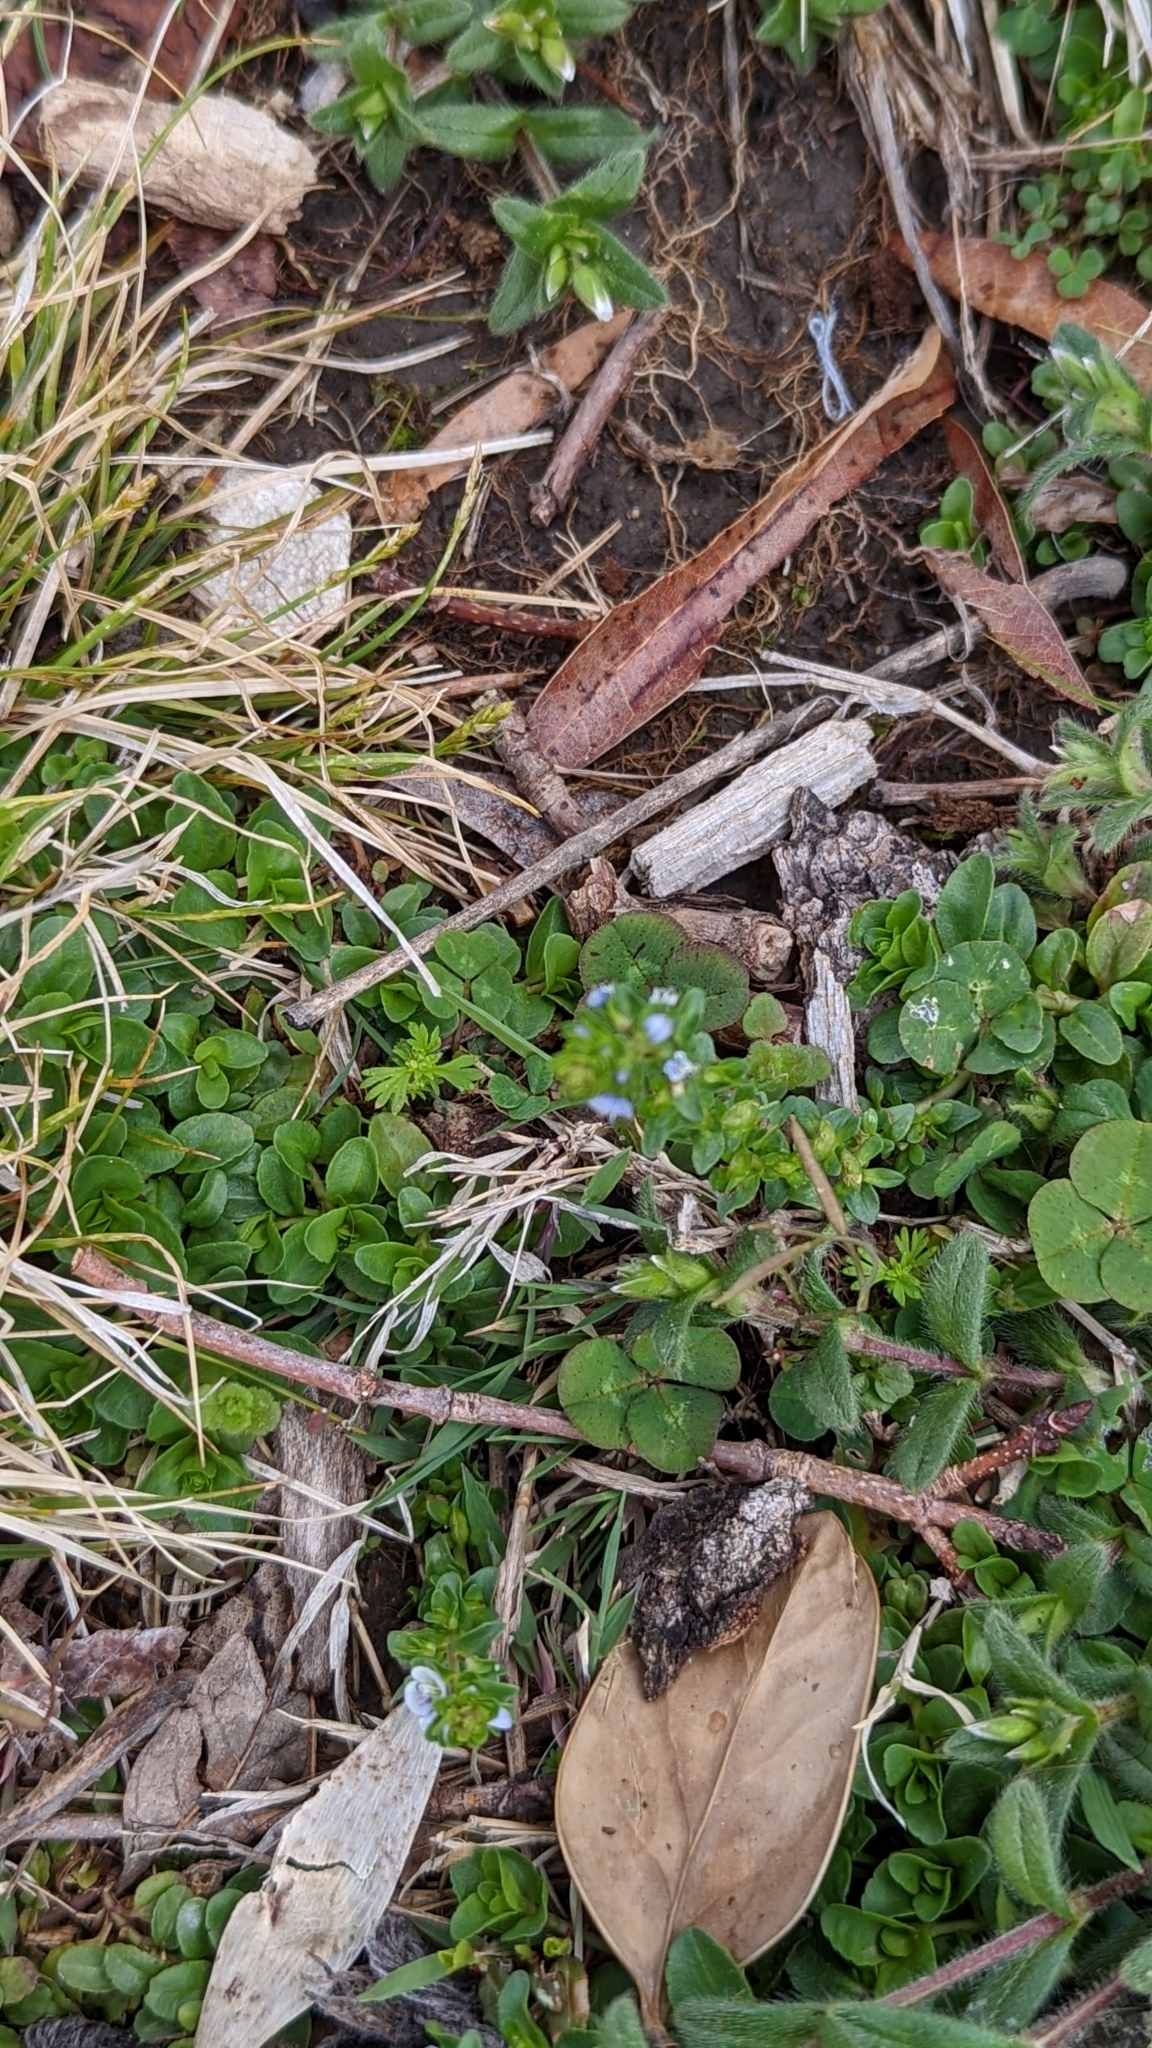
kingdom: Plantae
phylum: Tracheophyta
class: Magnoliopsida
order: Lamiales
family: Plantaginaceae
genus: Veronica
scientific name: Veronica serpyllifolia
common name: Thyme-leaved speedwell
